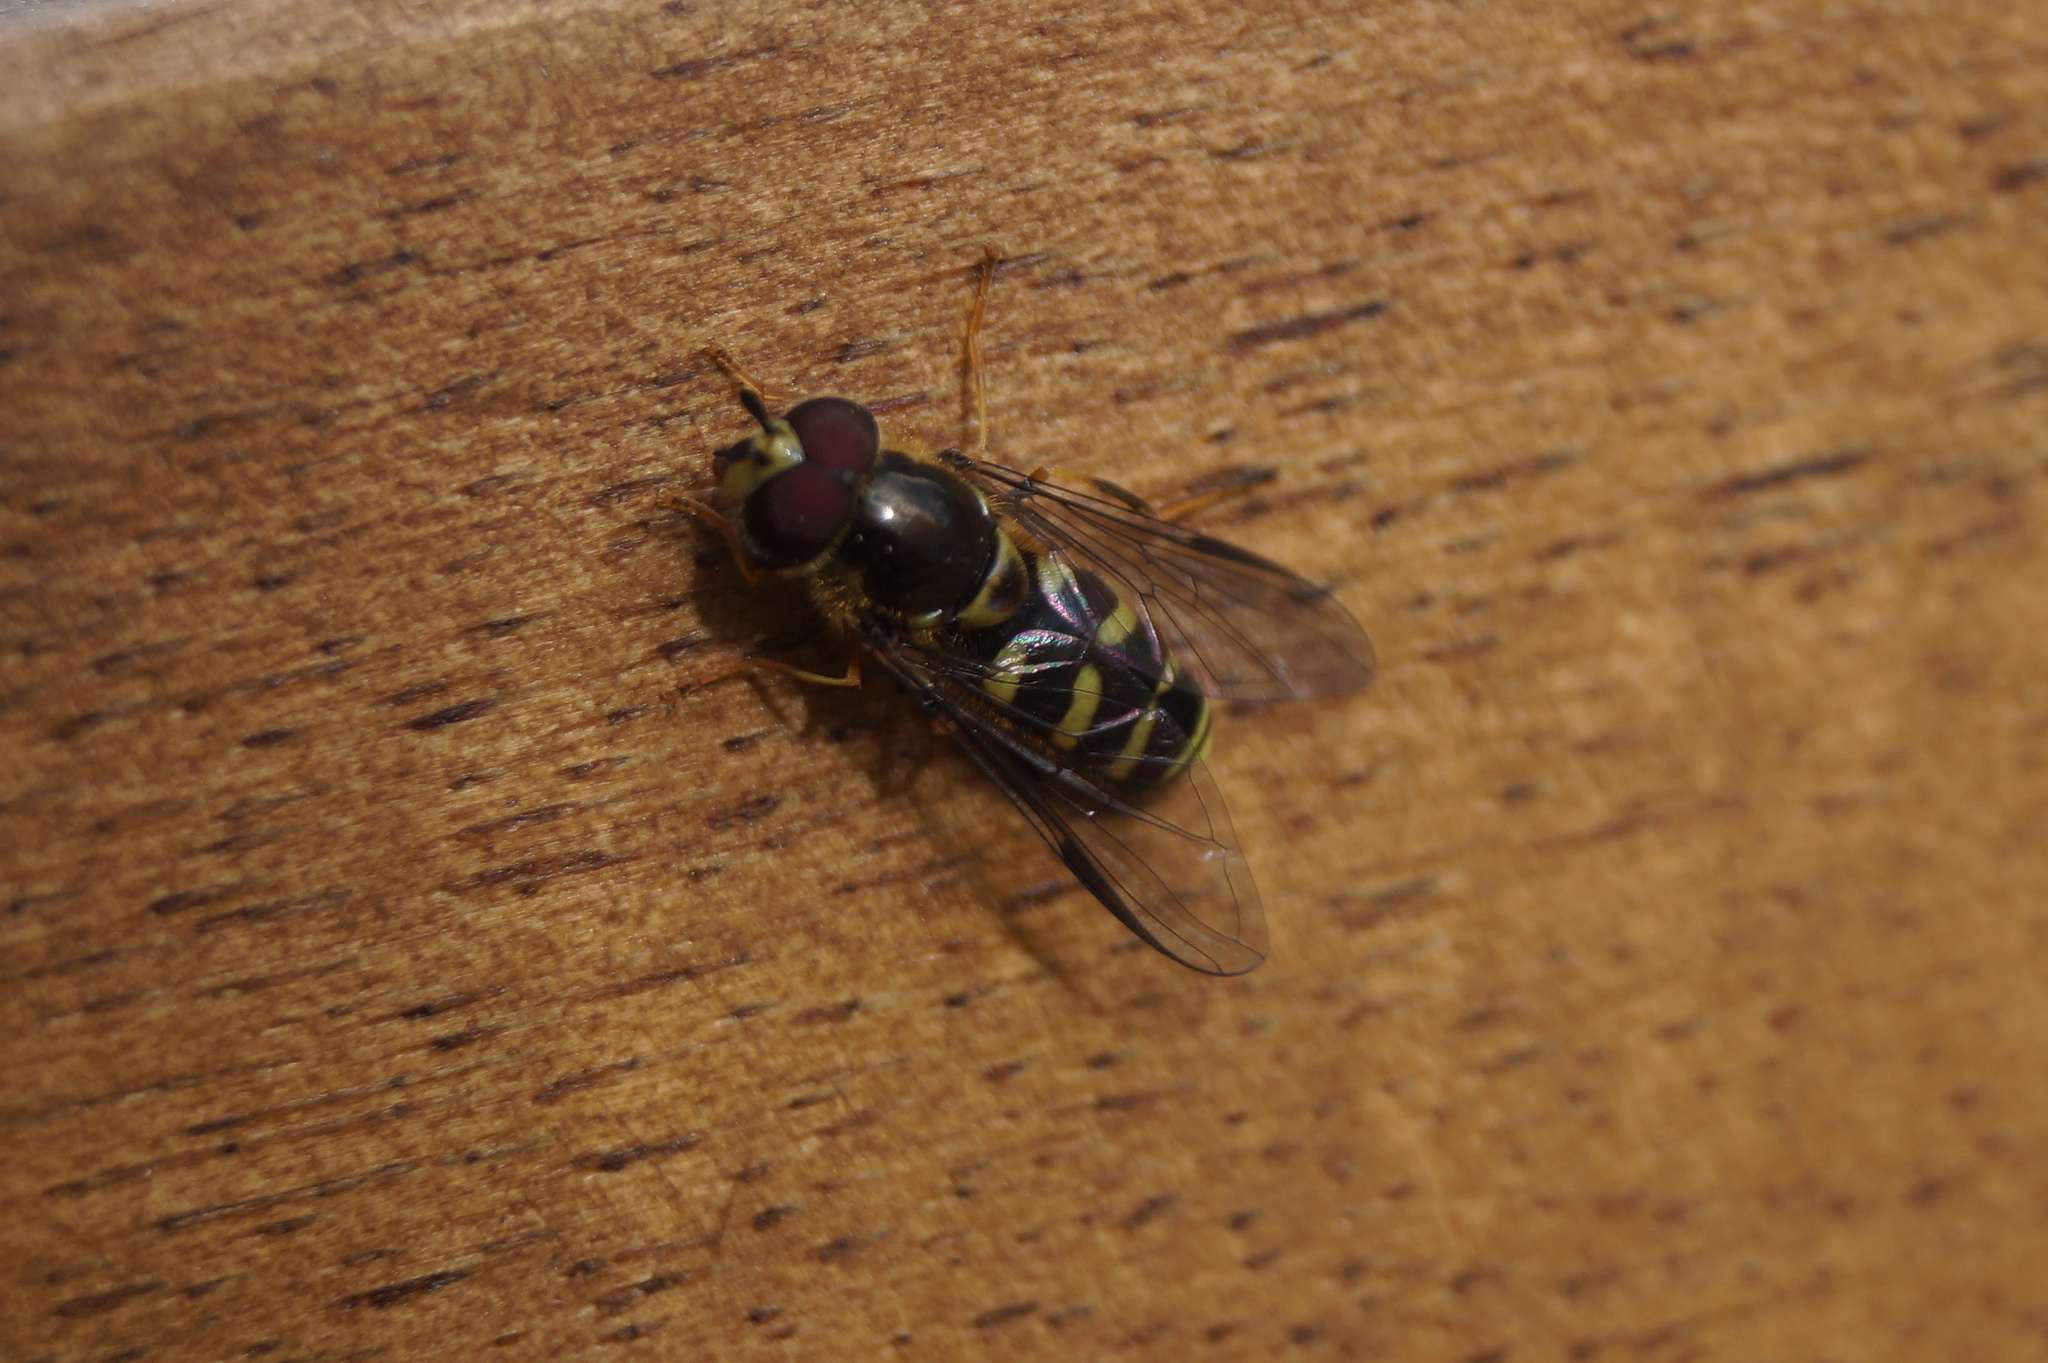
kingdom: Animalia
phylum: Arthropoda
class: Insecta
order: Diptera
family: Syrphidae
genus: Dasysyrphus
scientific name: Dasysyrphus albostriatus
